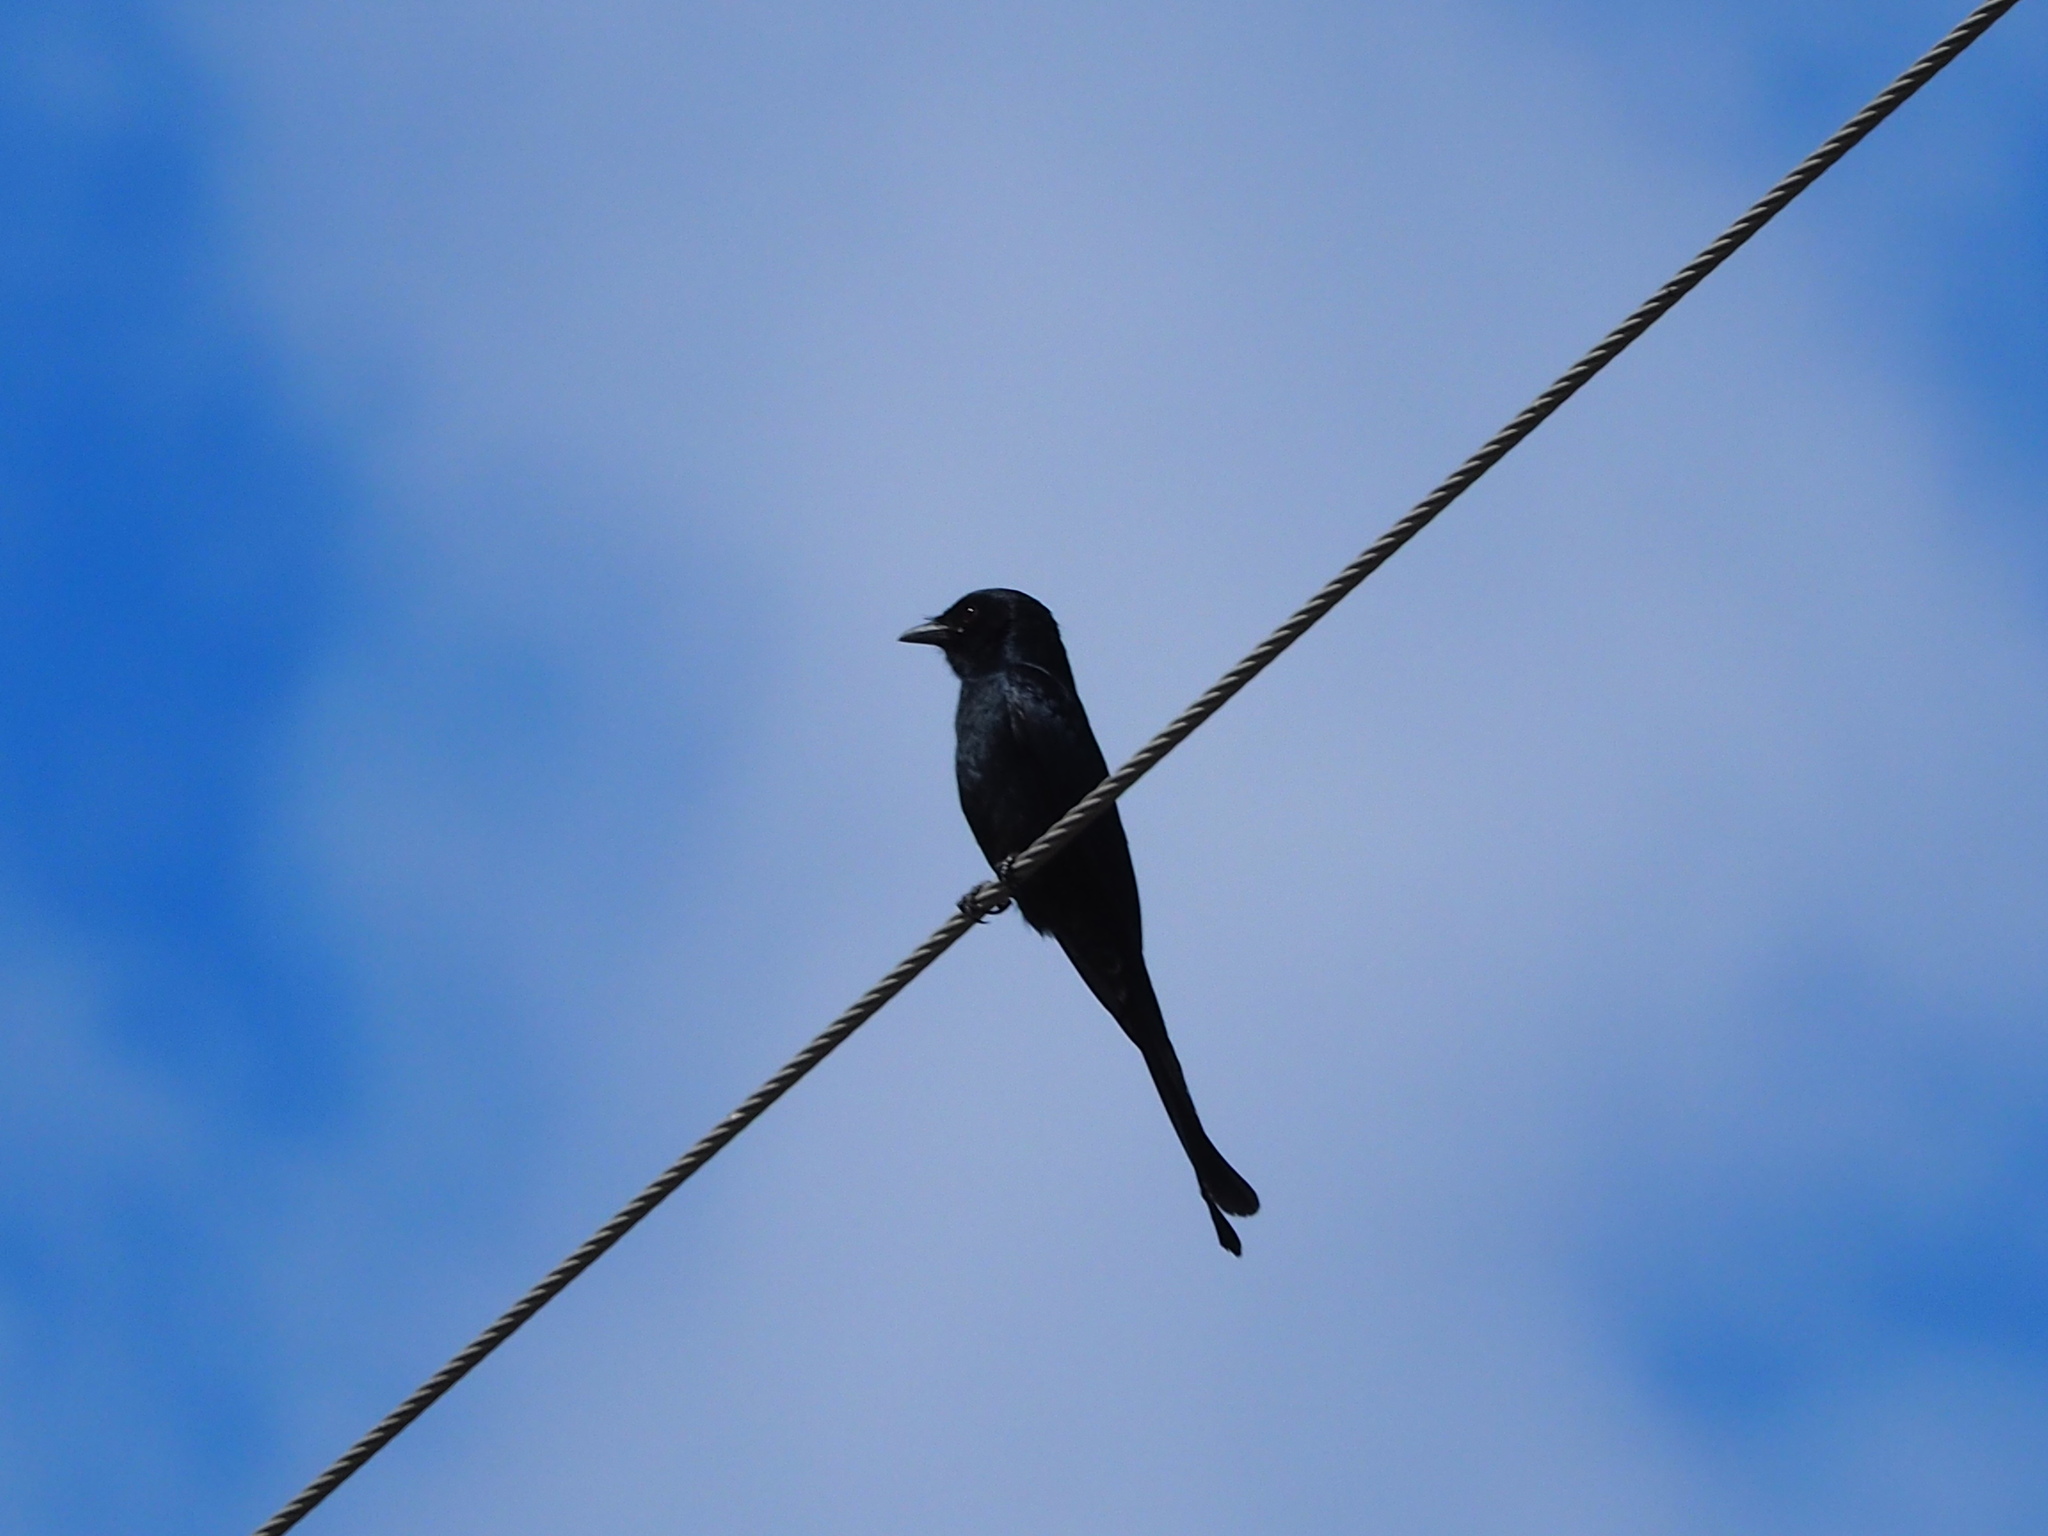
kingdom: Animalia
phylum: Chordata
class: Aves
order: Passeriformes
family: Dicruridae
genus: Dicrurus
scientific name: Dicrurus macrocercus
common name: Black drongo
